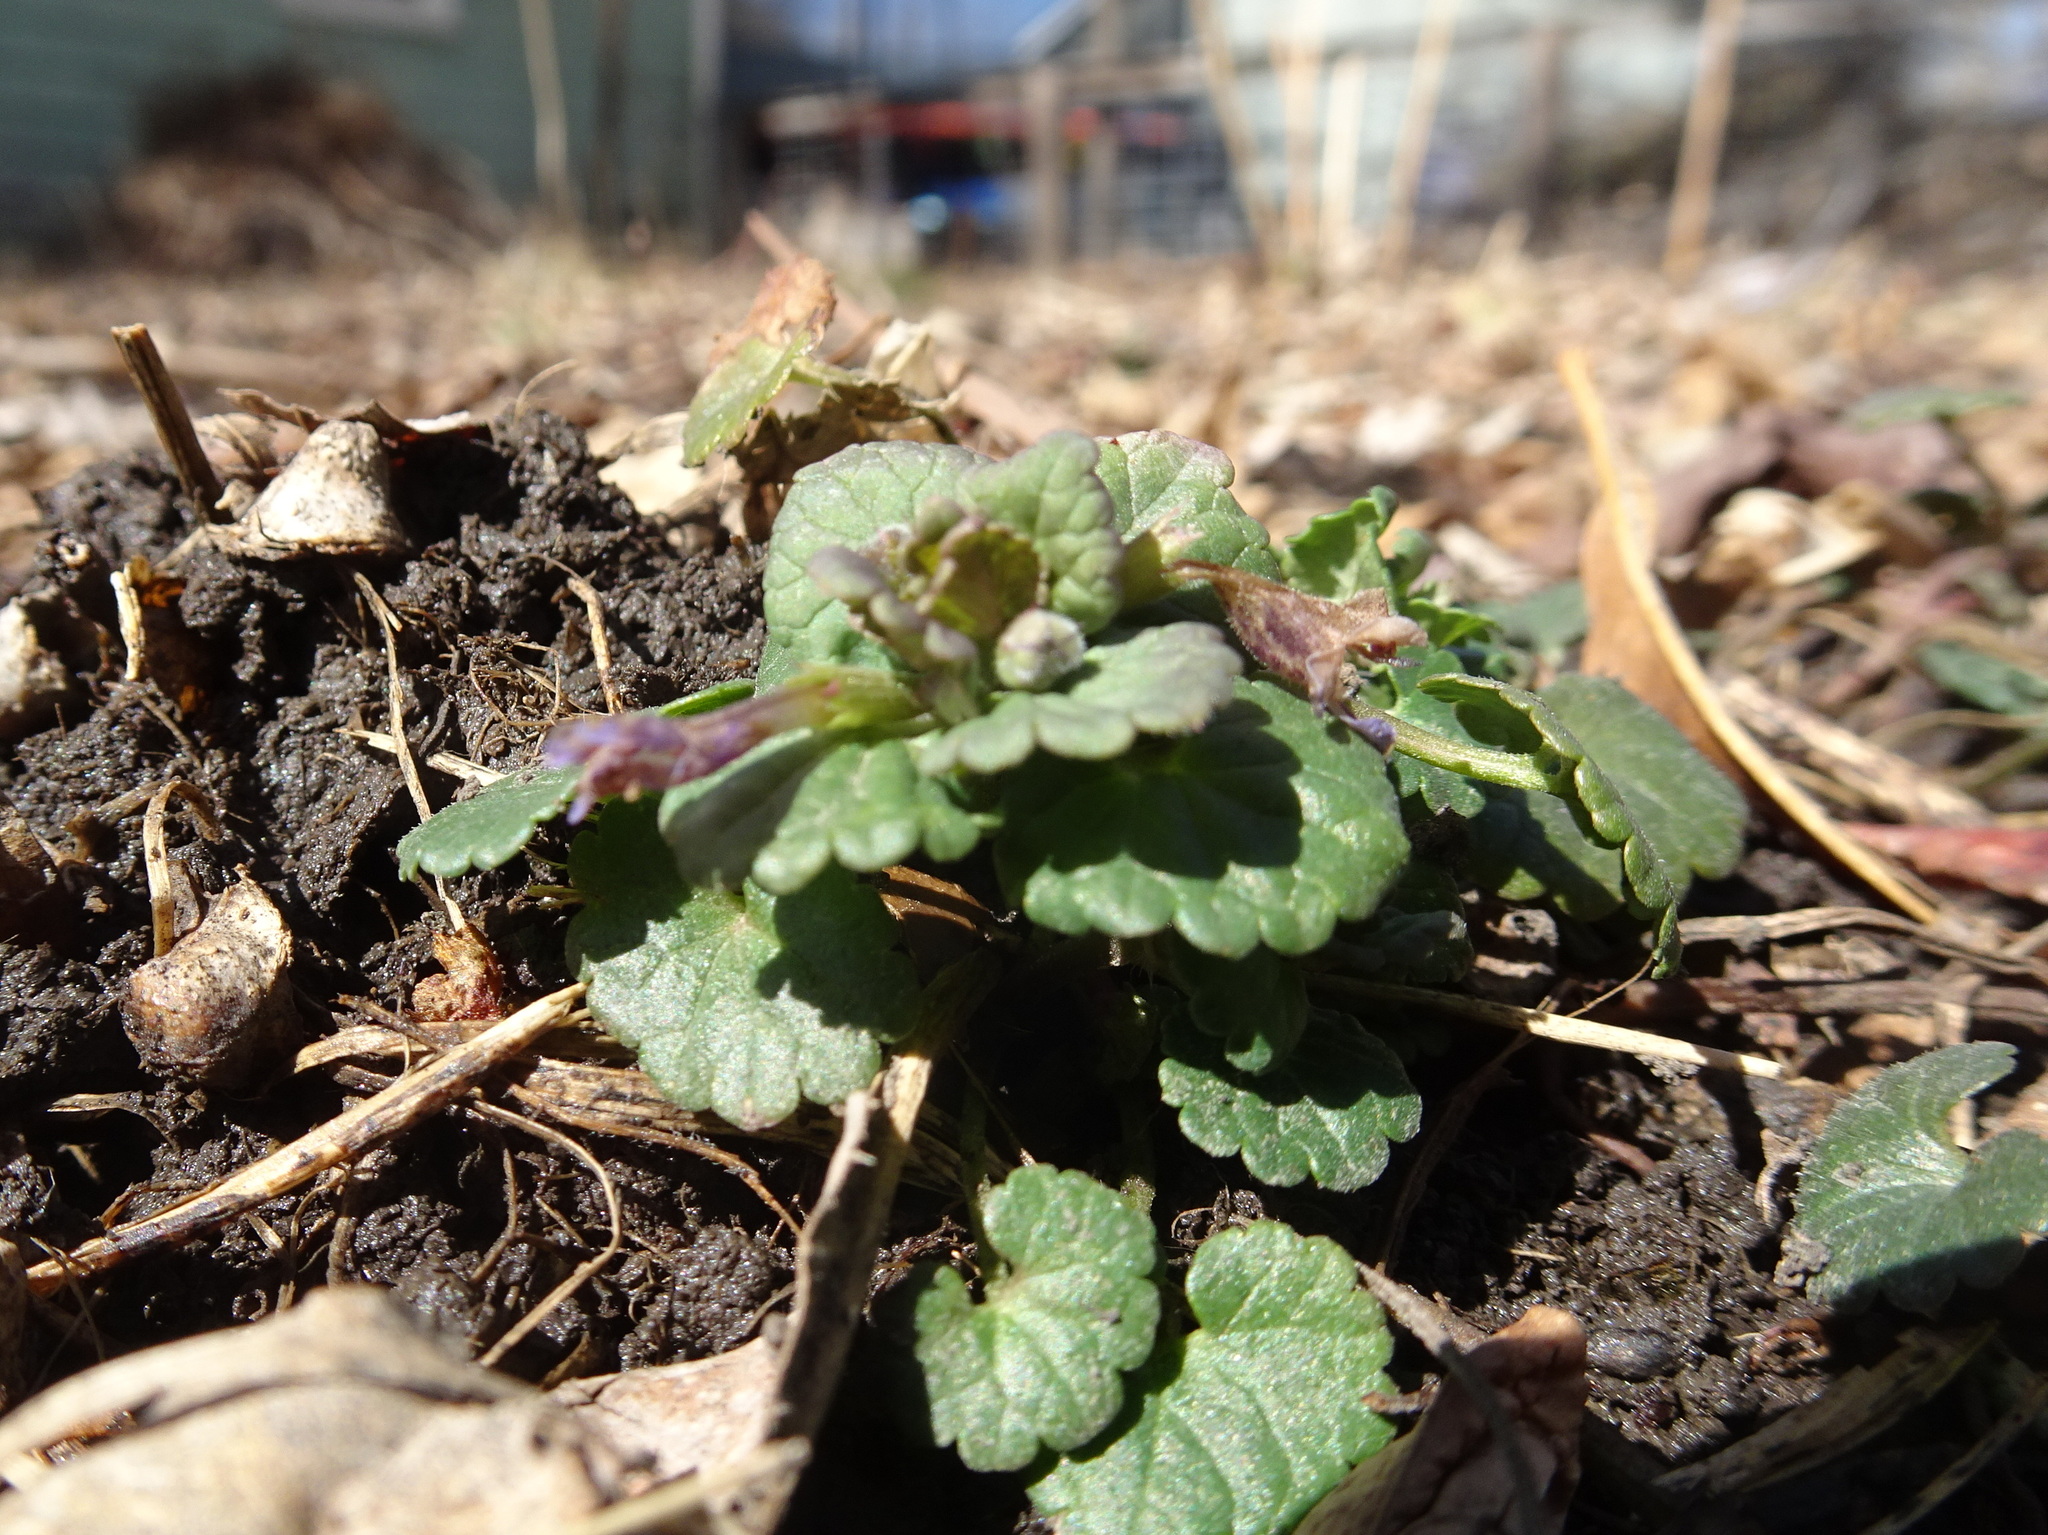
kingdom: Plantae
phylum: Tracheophyta
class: Magnoliopsida
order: Lamiales
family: Lamiaceae
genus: Glechoma
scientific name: Glechoma hederacea
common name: Ground ivy
